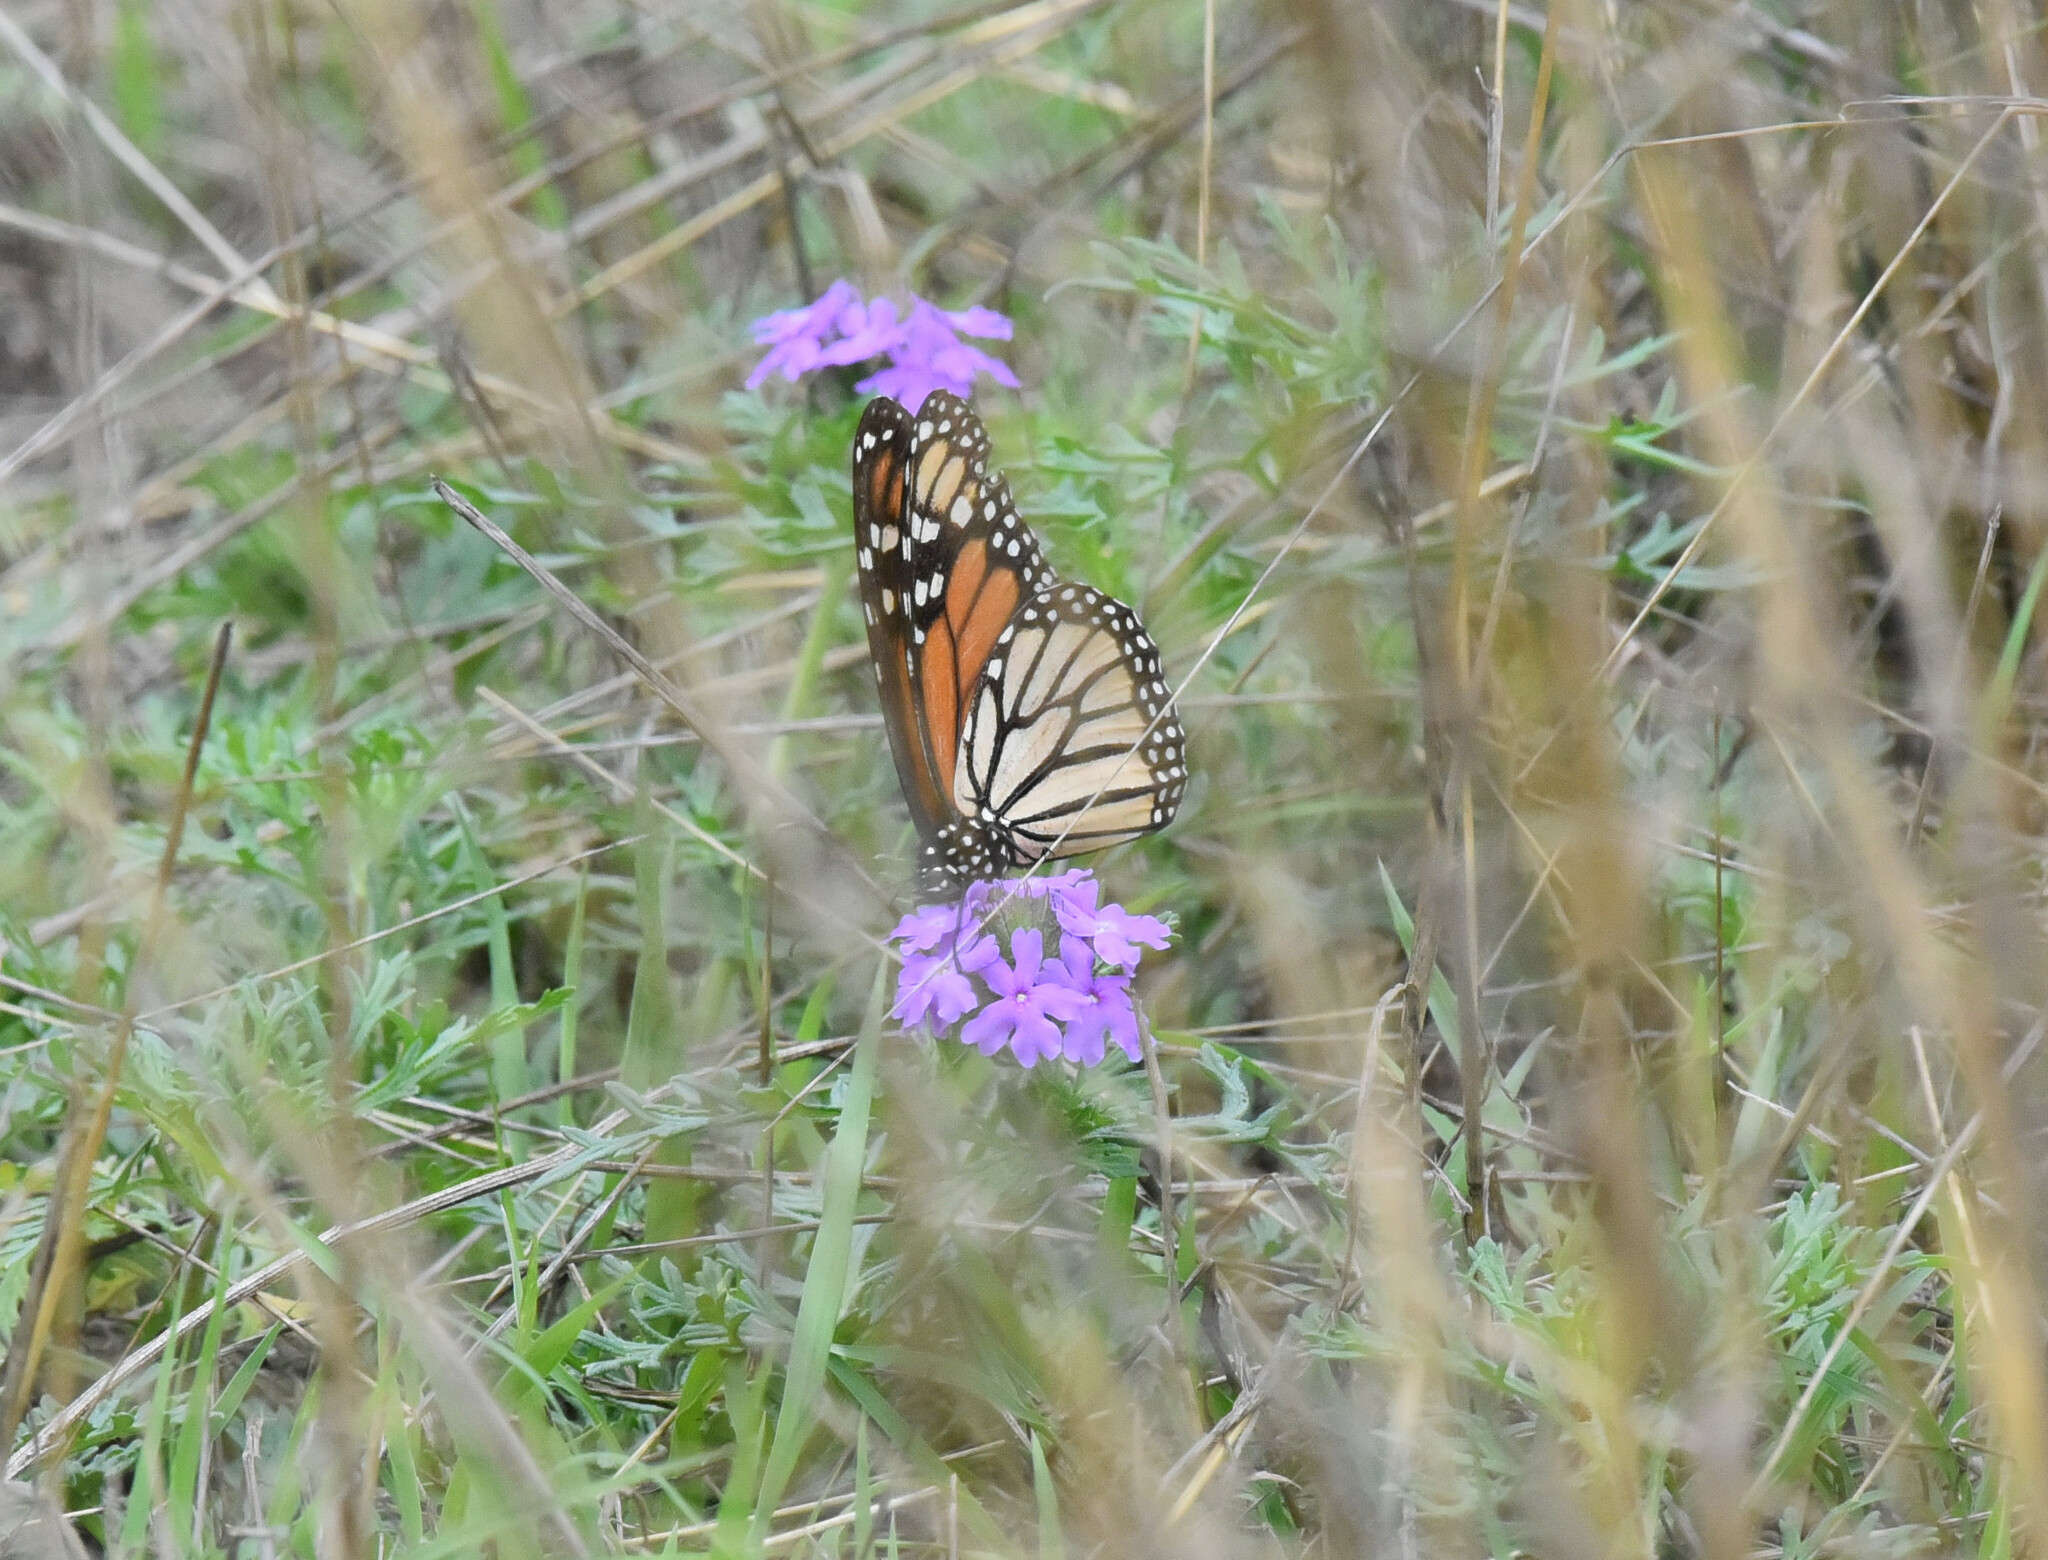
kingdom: Animalia
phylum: Arthropoda
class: Insecta
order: Lepidoptera
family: Nymphalidae
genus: Danaus
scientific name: Danaus plexippus
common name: Monarch
